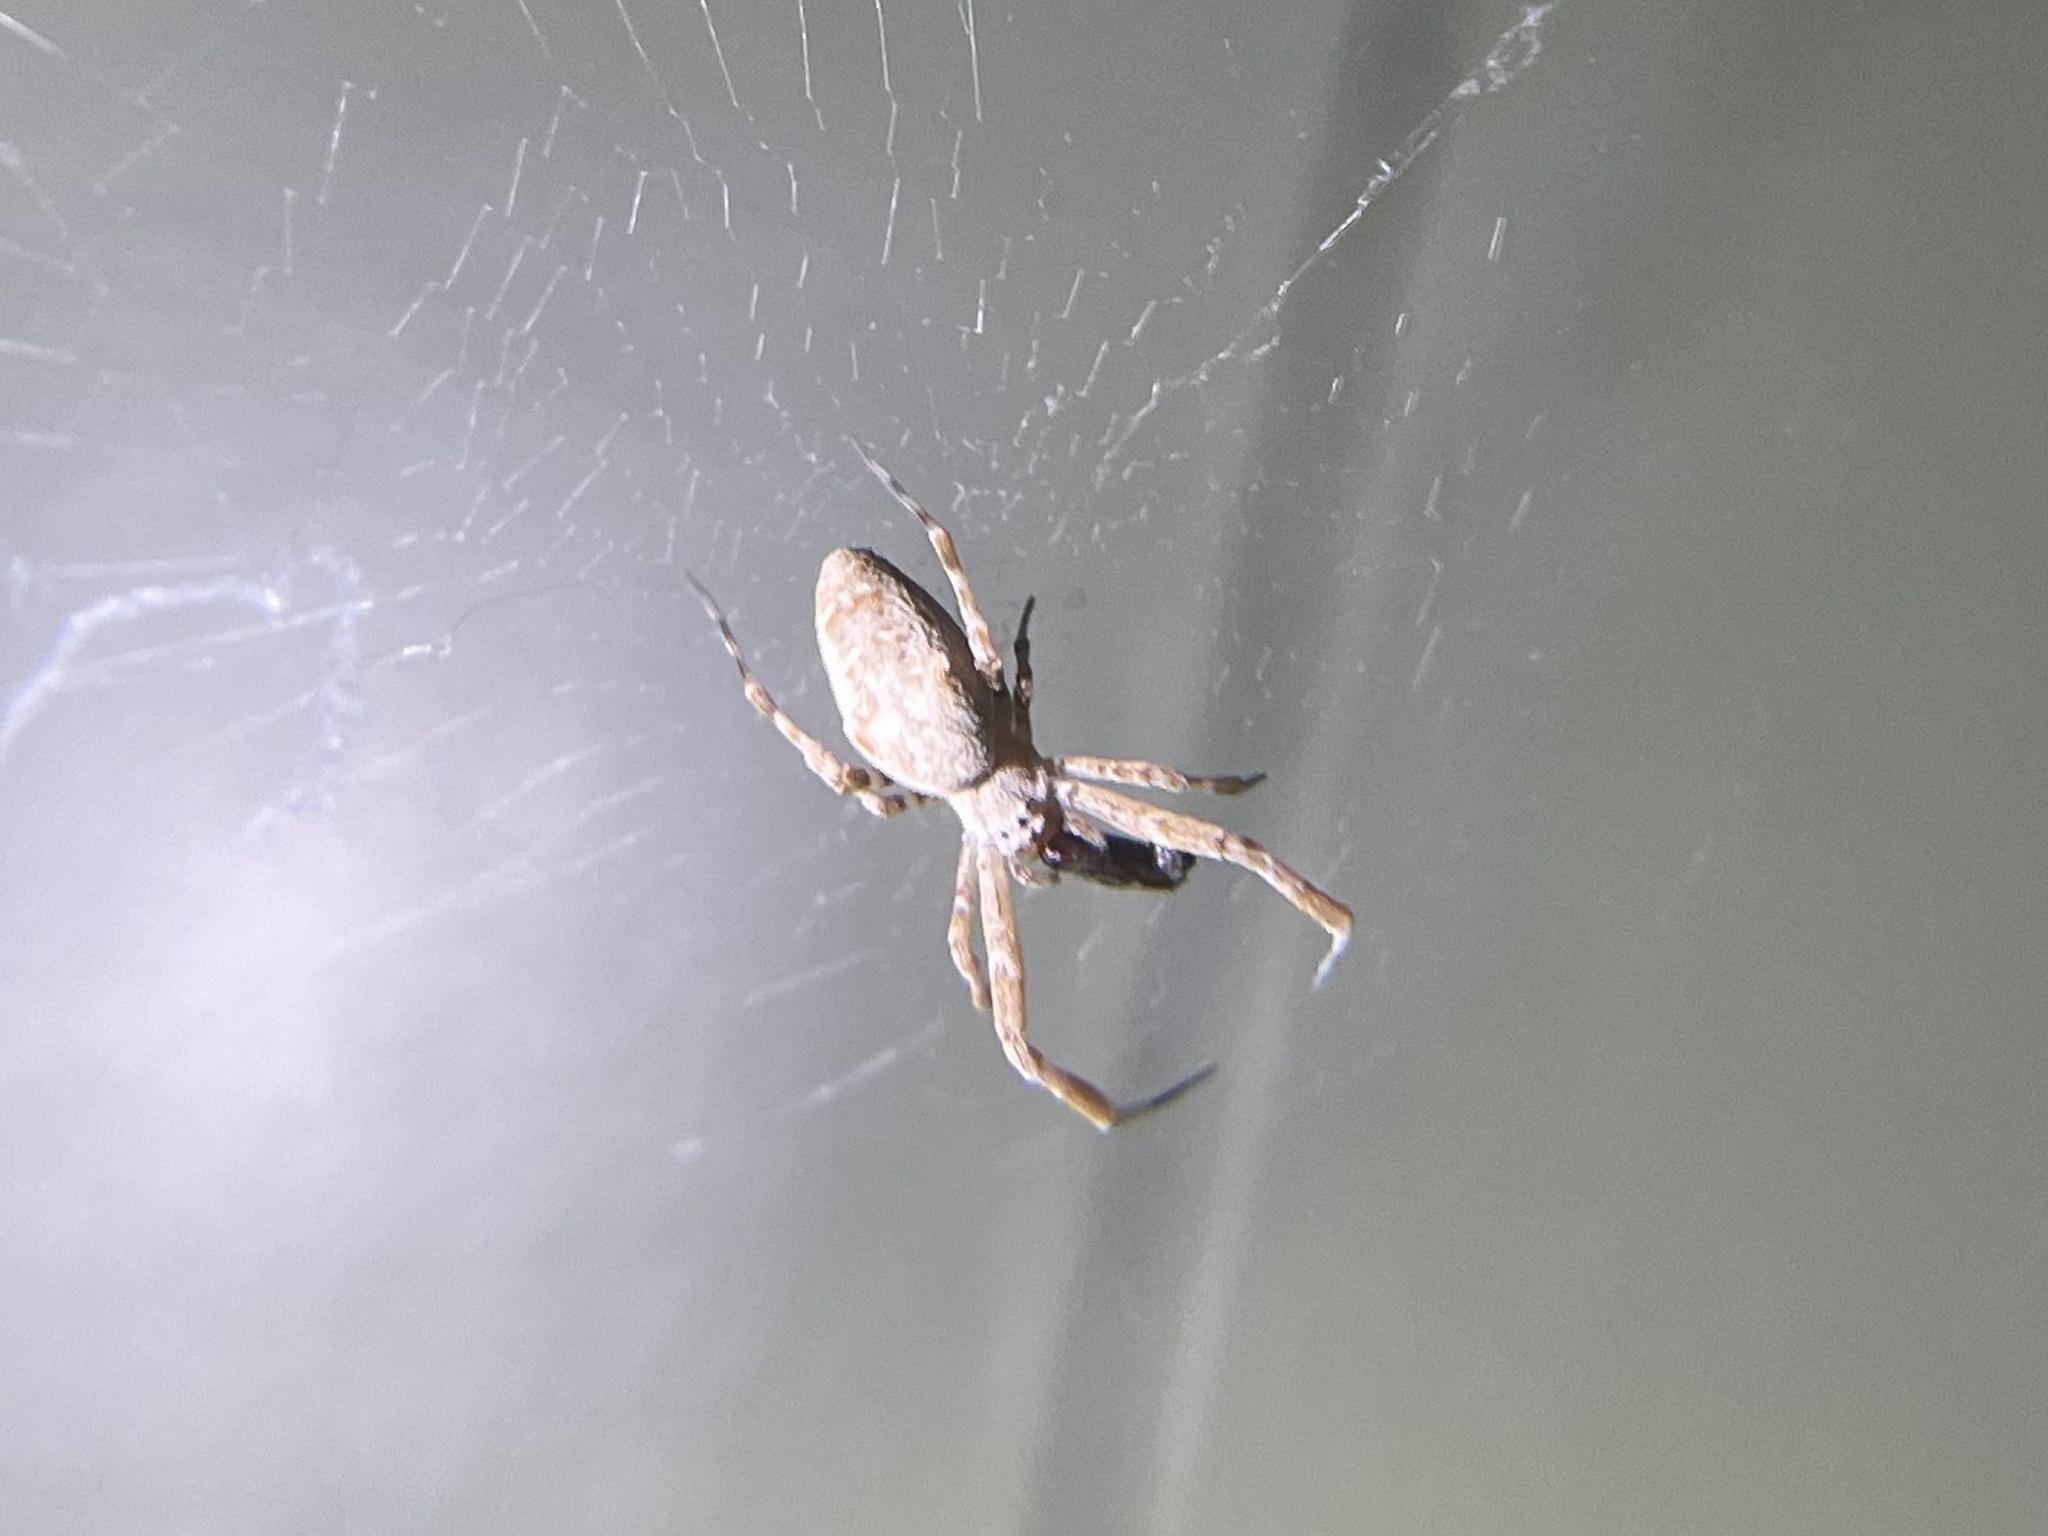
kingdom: Animalia
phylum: Arthropoda
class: Arachnida
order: Araneae
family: Uloboridae
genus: Uloborus
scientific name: Uloborus diversus
